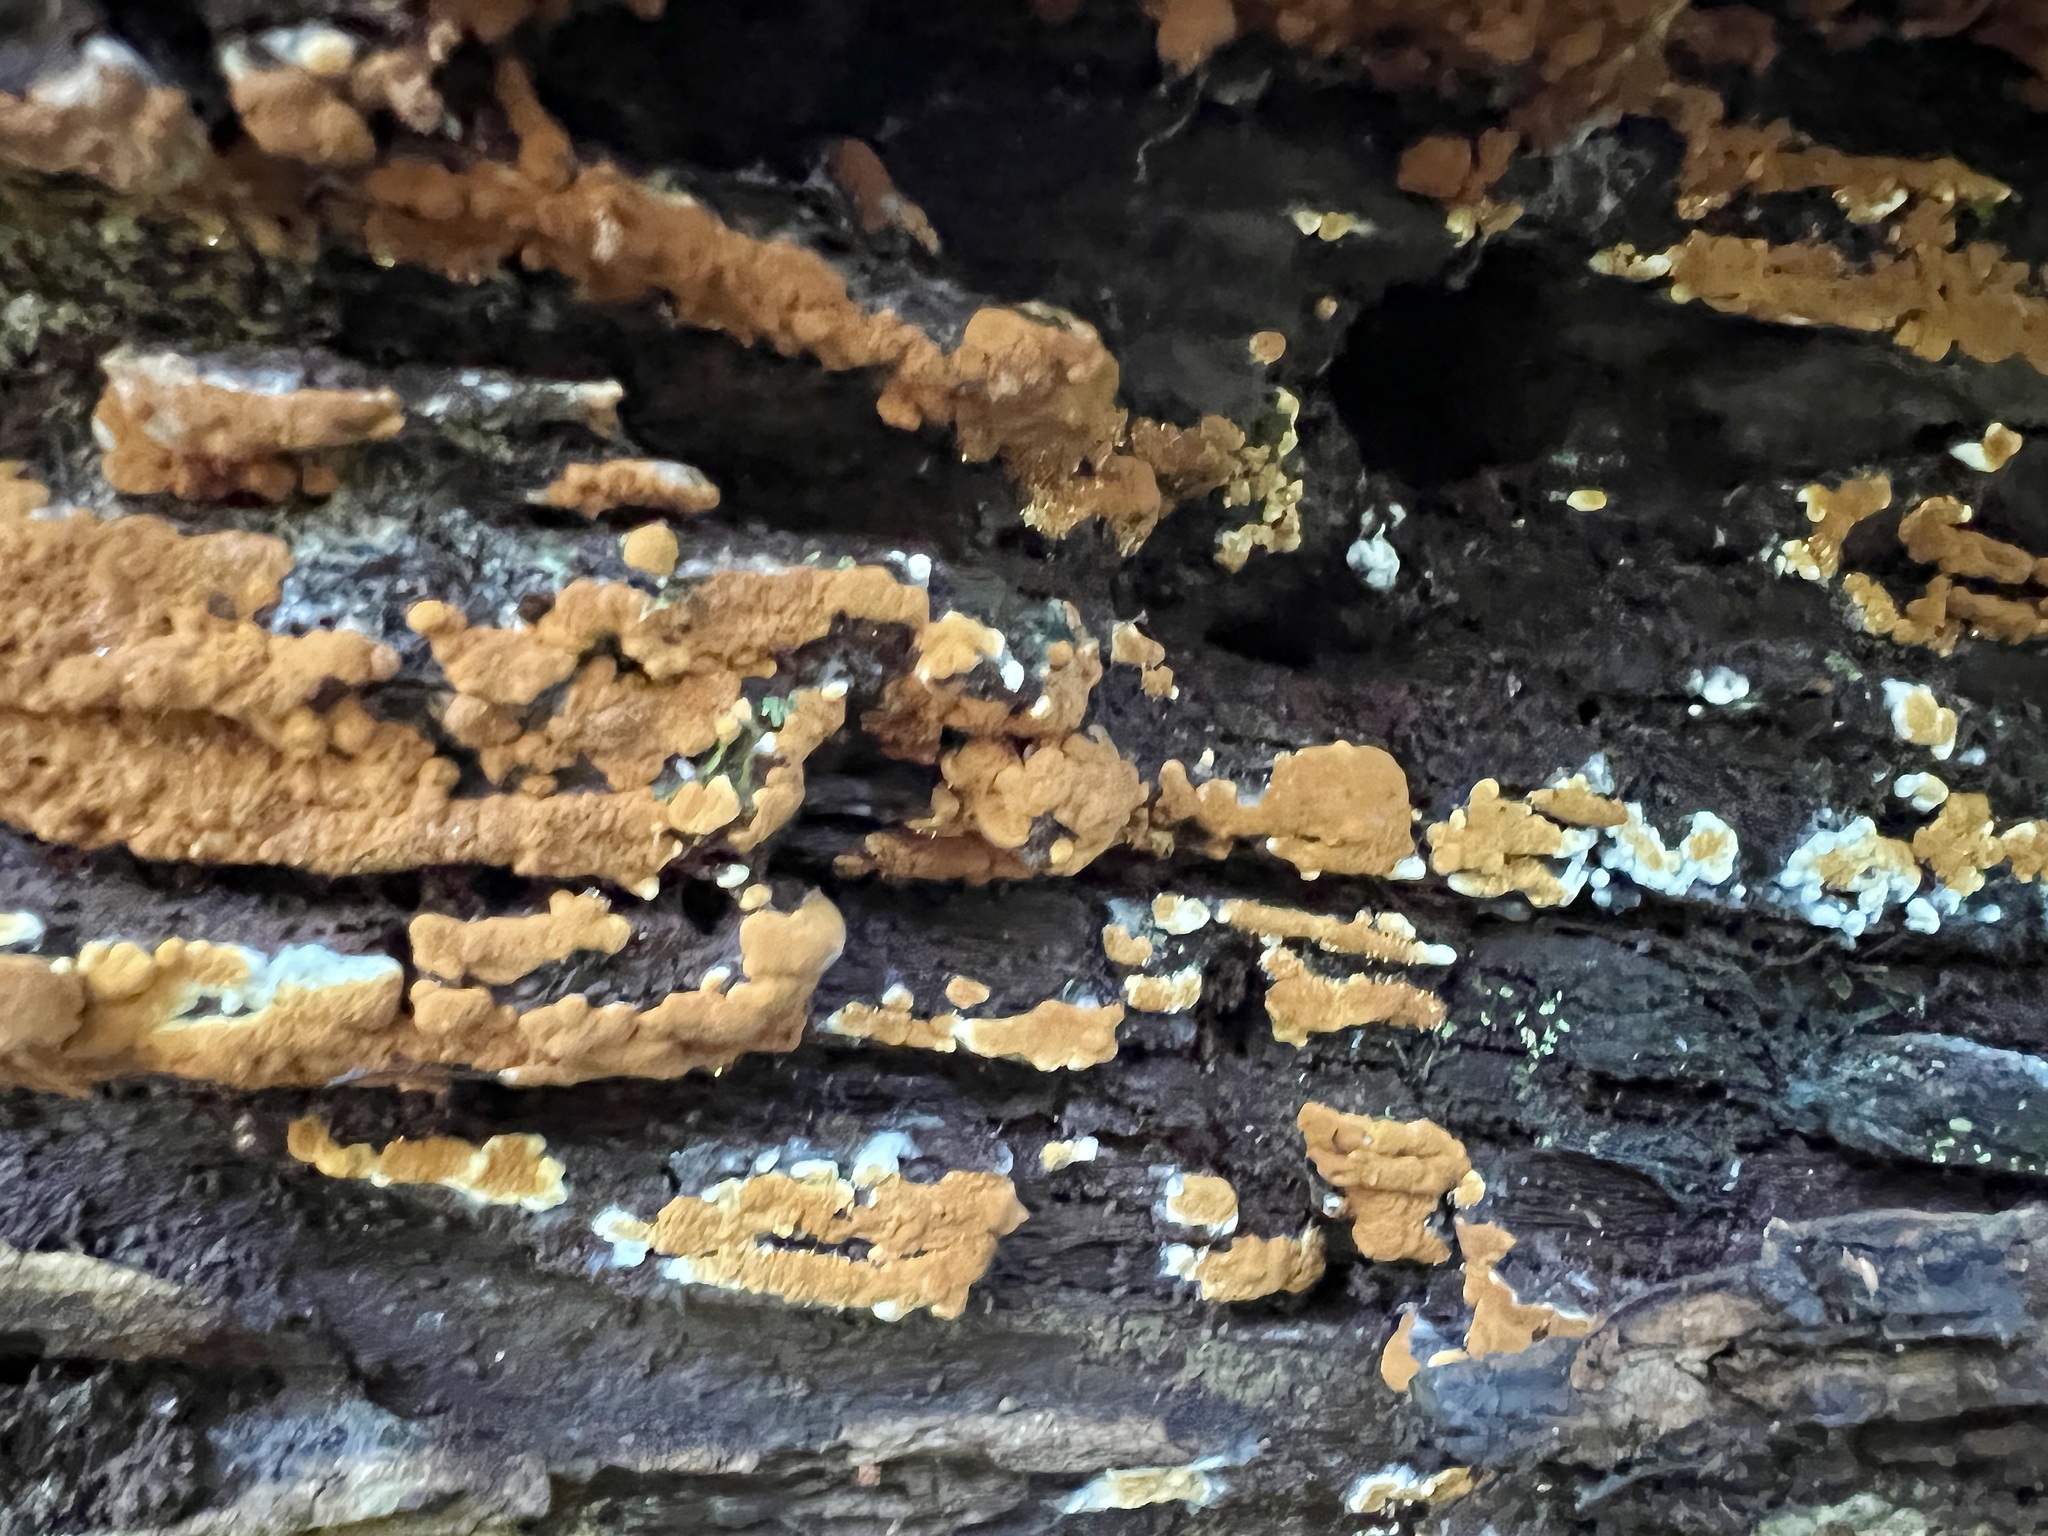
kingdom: Fungi
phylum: Basidiomycota
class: Agaricomycetes
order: Cantharellales
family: Botryobasidiaceae
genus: Botryobasidium
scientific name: Botryobasidium aureum
